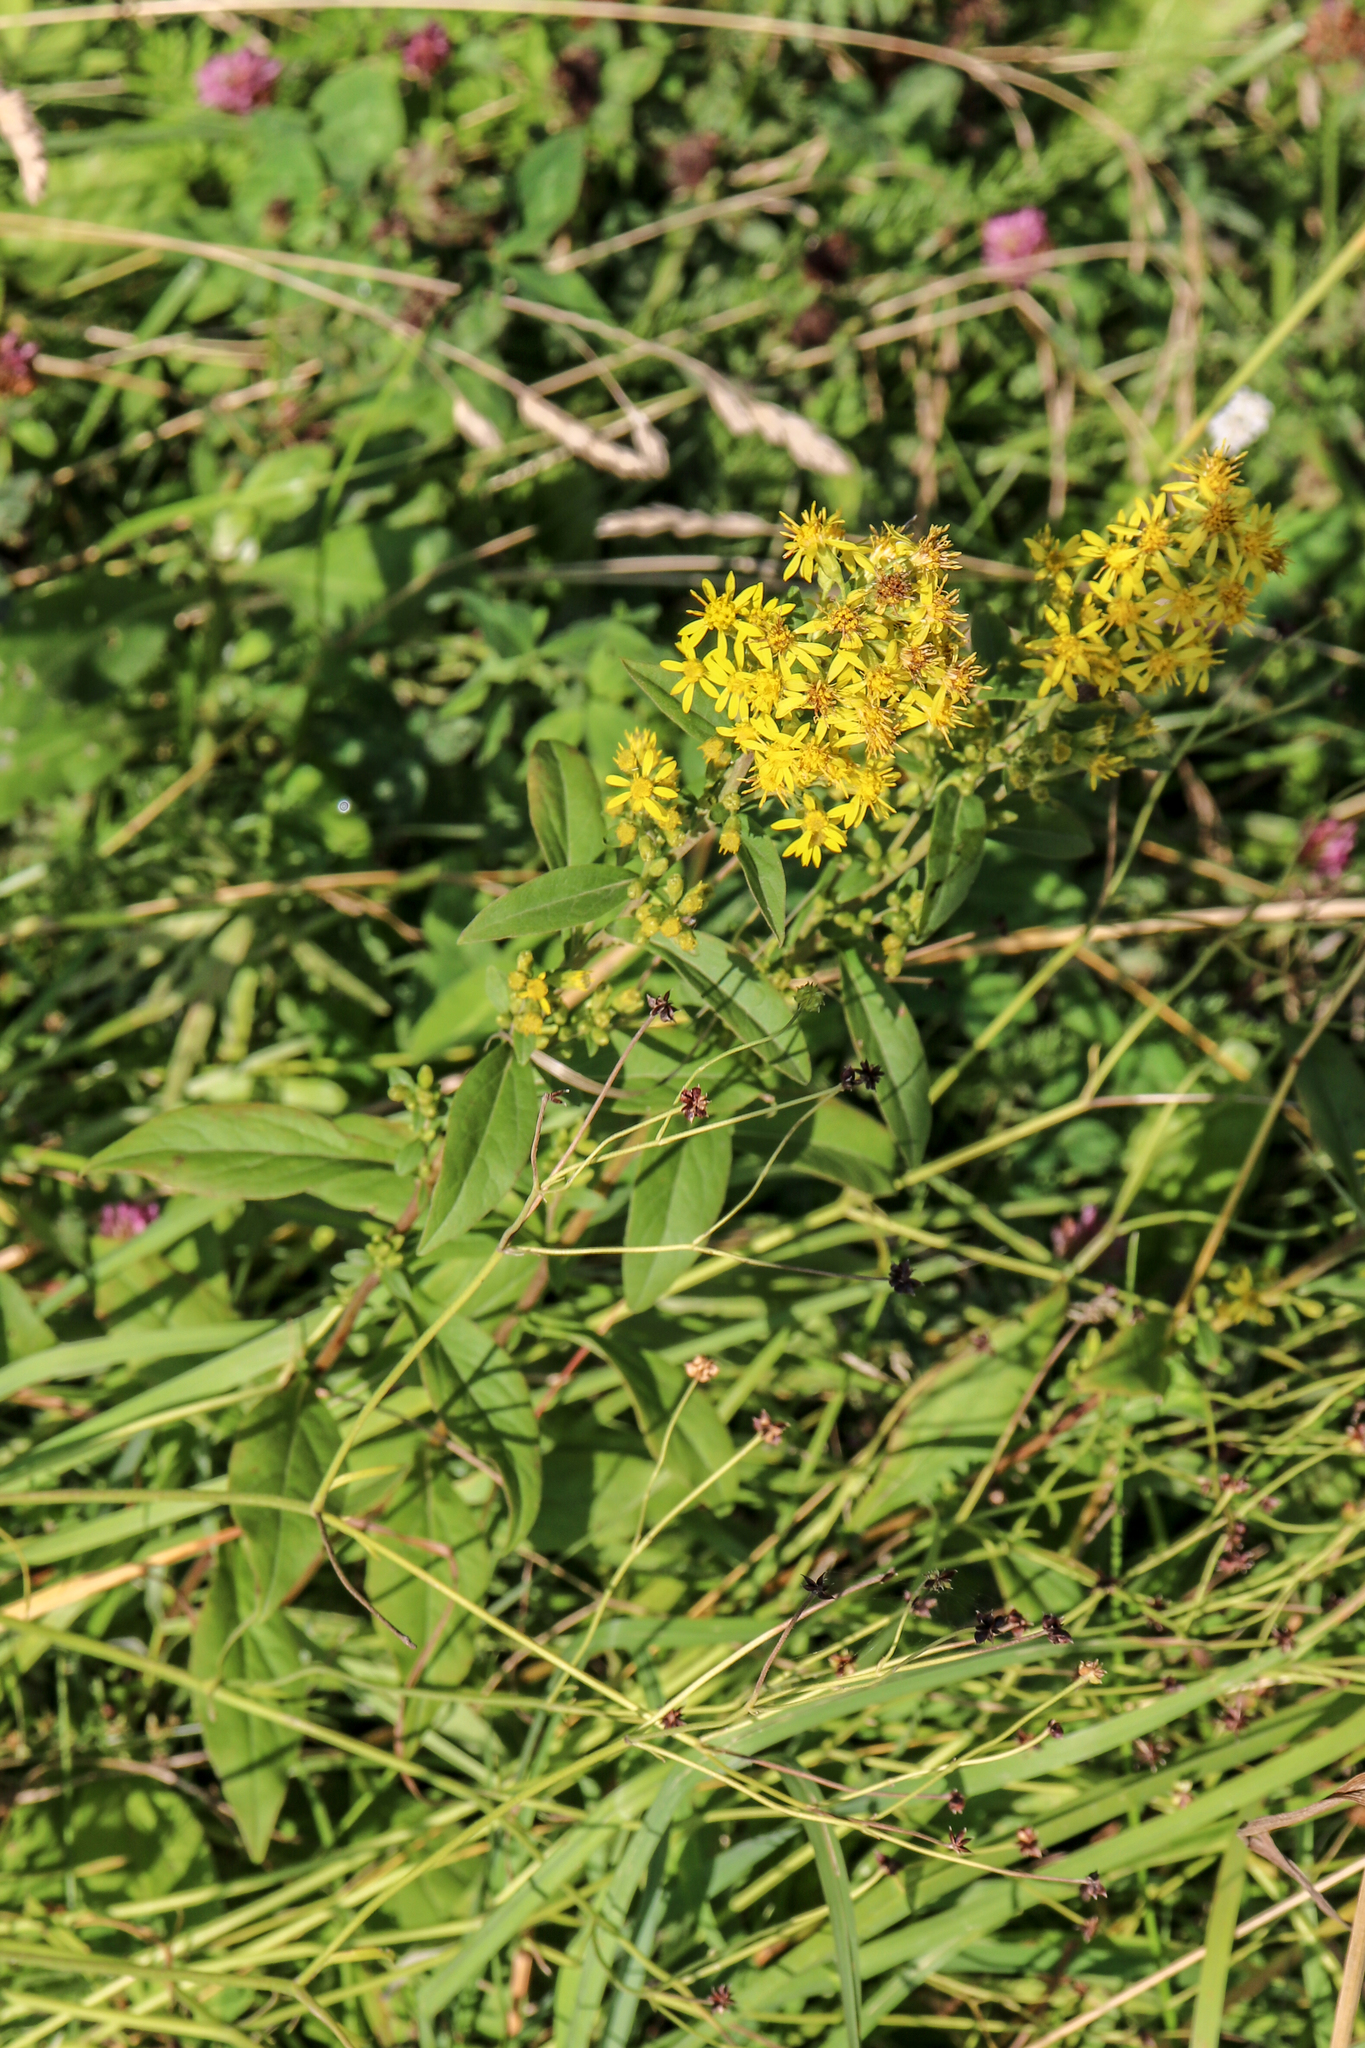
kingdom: Plantae
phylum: Tracheophyta
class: Magnoliopsida
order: Asterales
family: Asteraceae
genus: Solidago
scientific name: Solidago virgaurea
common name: Goldenrod
